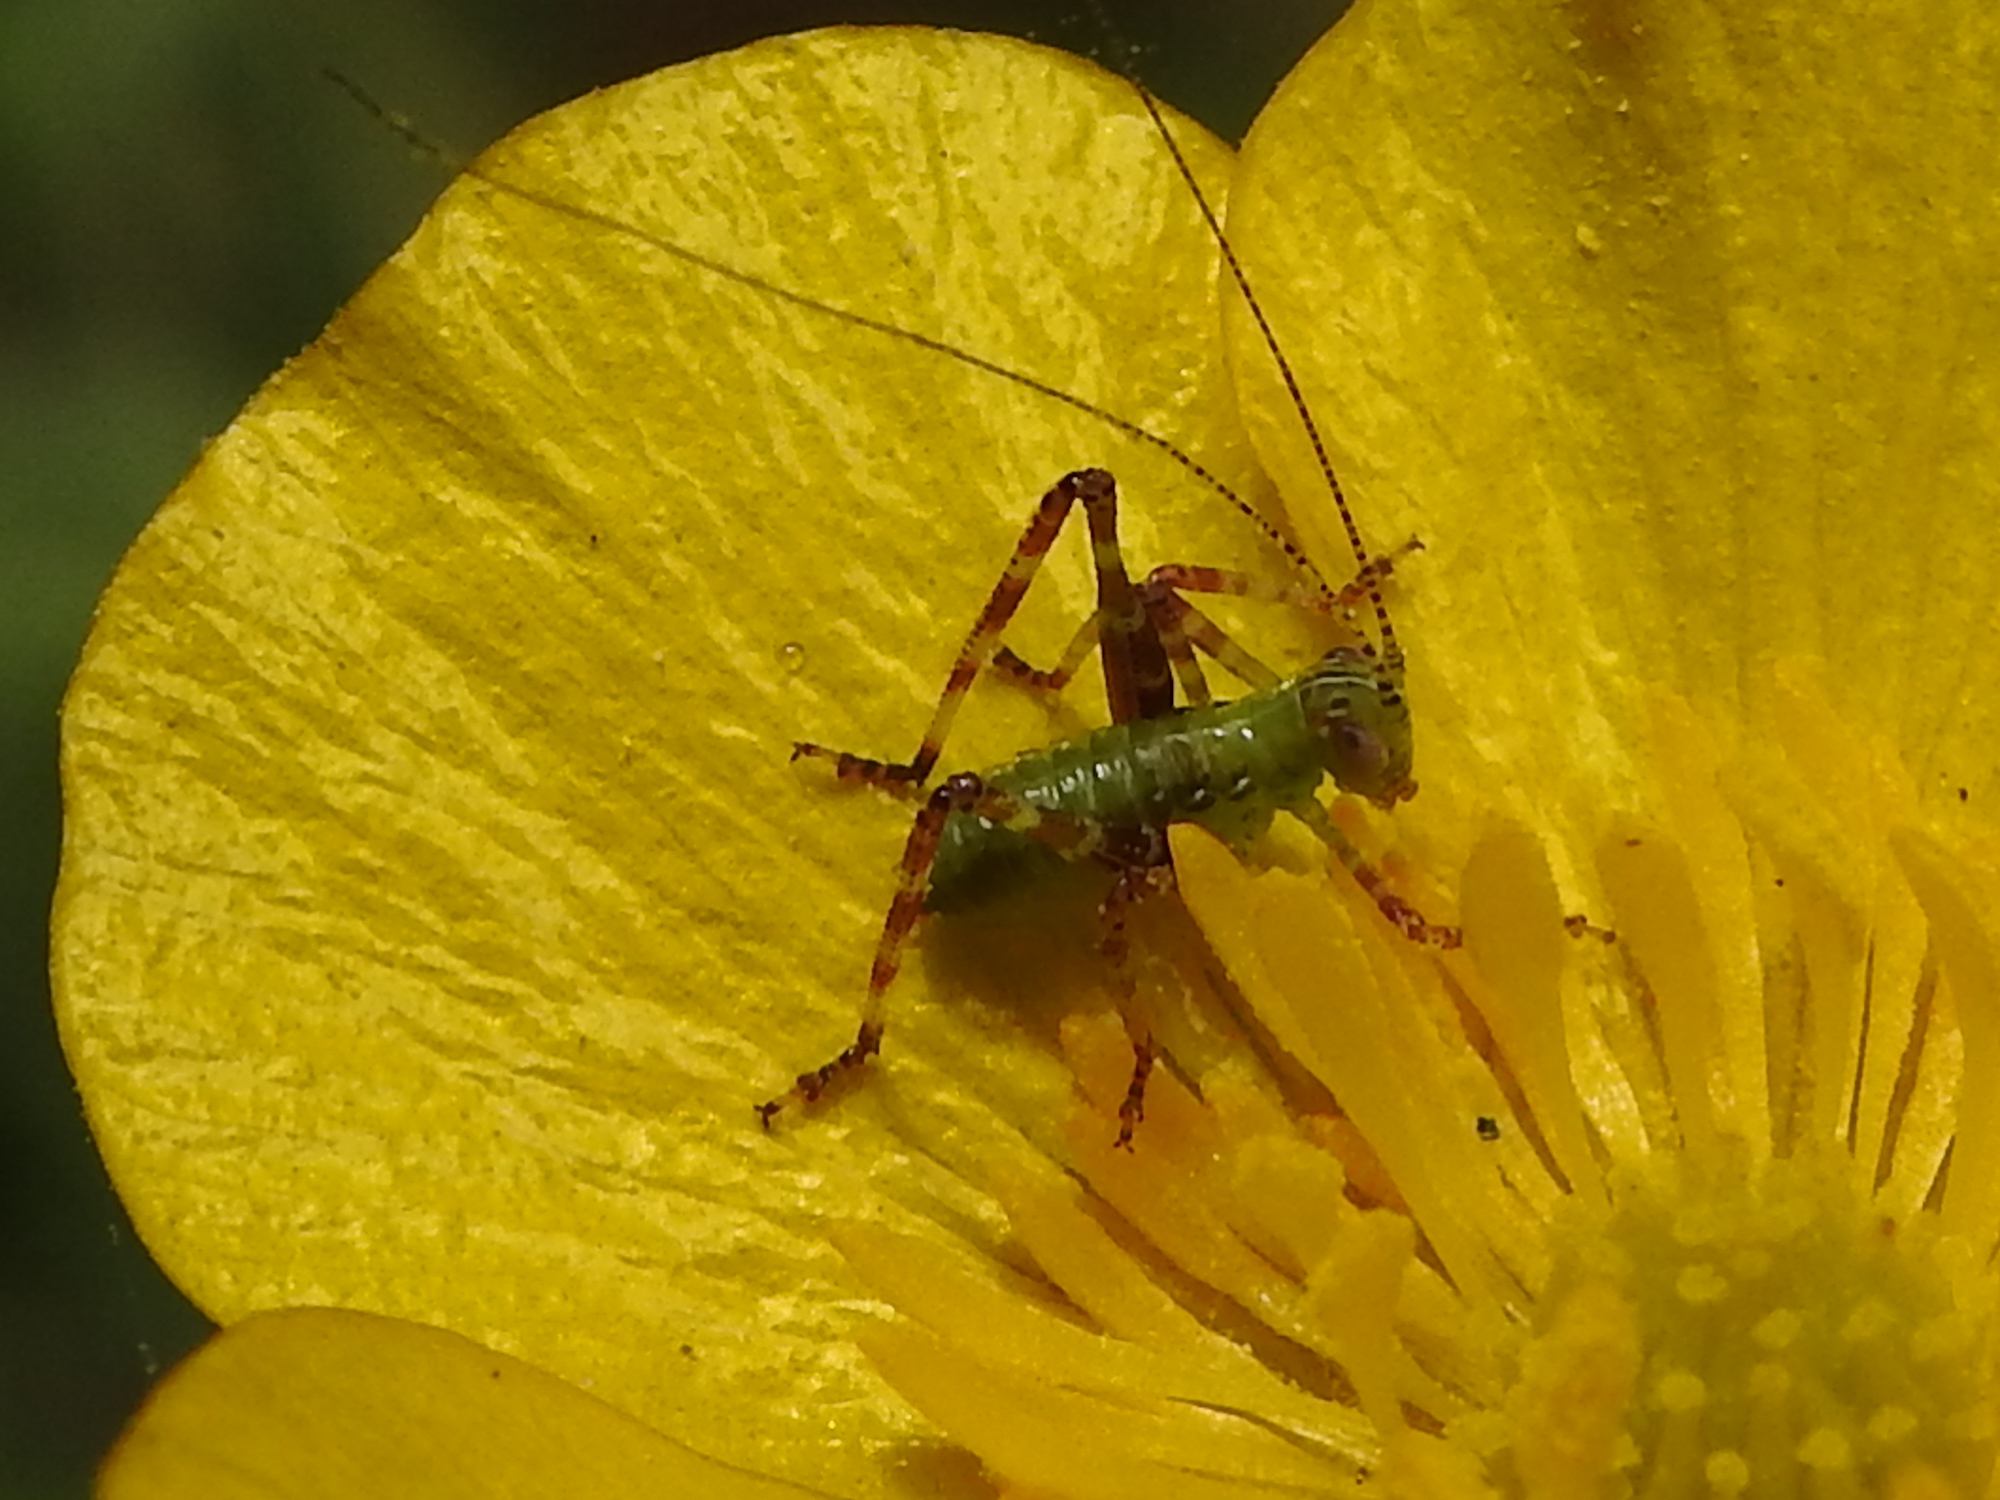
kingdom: Animalia
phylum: Arthropoda
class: Insecta
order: Orthoptera
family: Tettigoniidae
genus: Caedicia
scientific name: Caedicia simplex
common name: Common garden katydid
